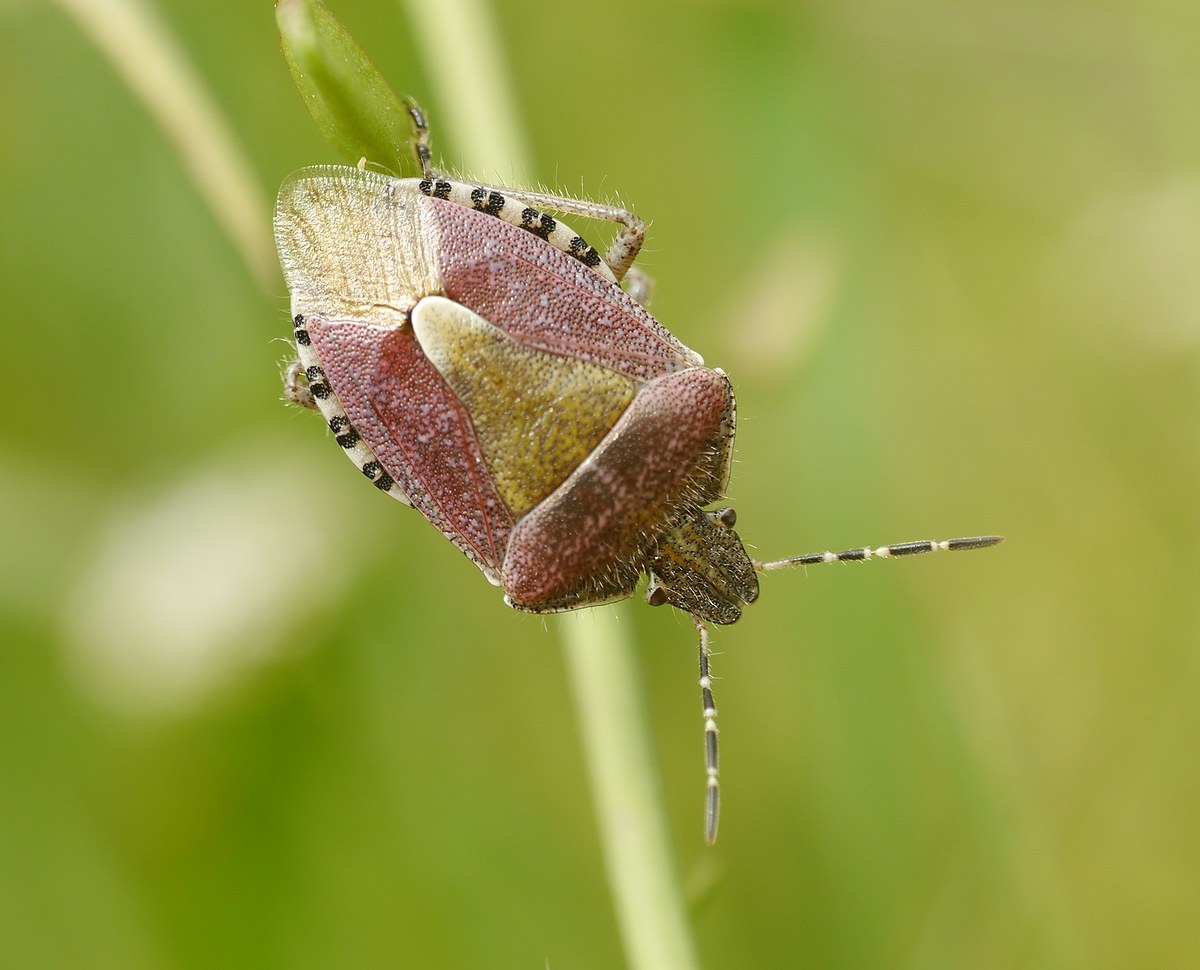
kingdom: Animalia
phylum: Arthropoda
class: Insecta
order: Hemiptera
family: Pentatomidae
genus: Dolycoris
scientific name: Dolycoris baccarum
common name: Sloe bug
